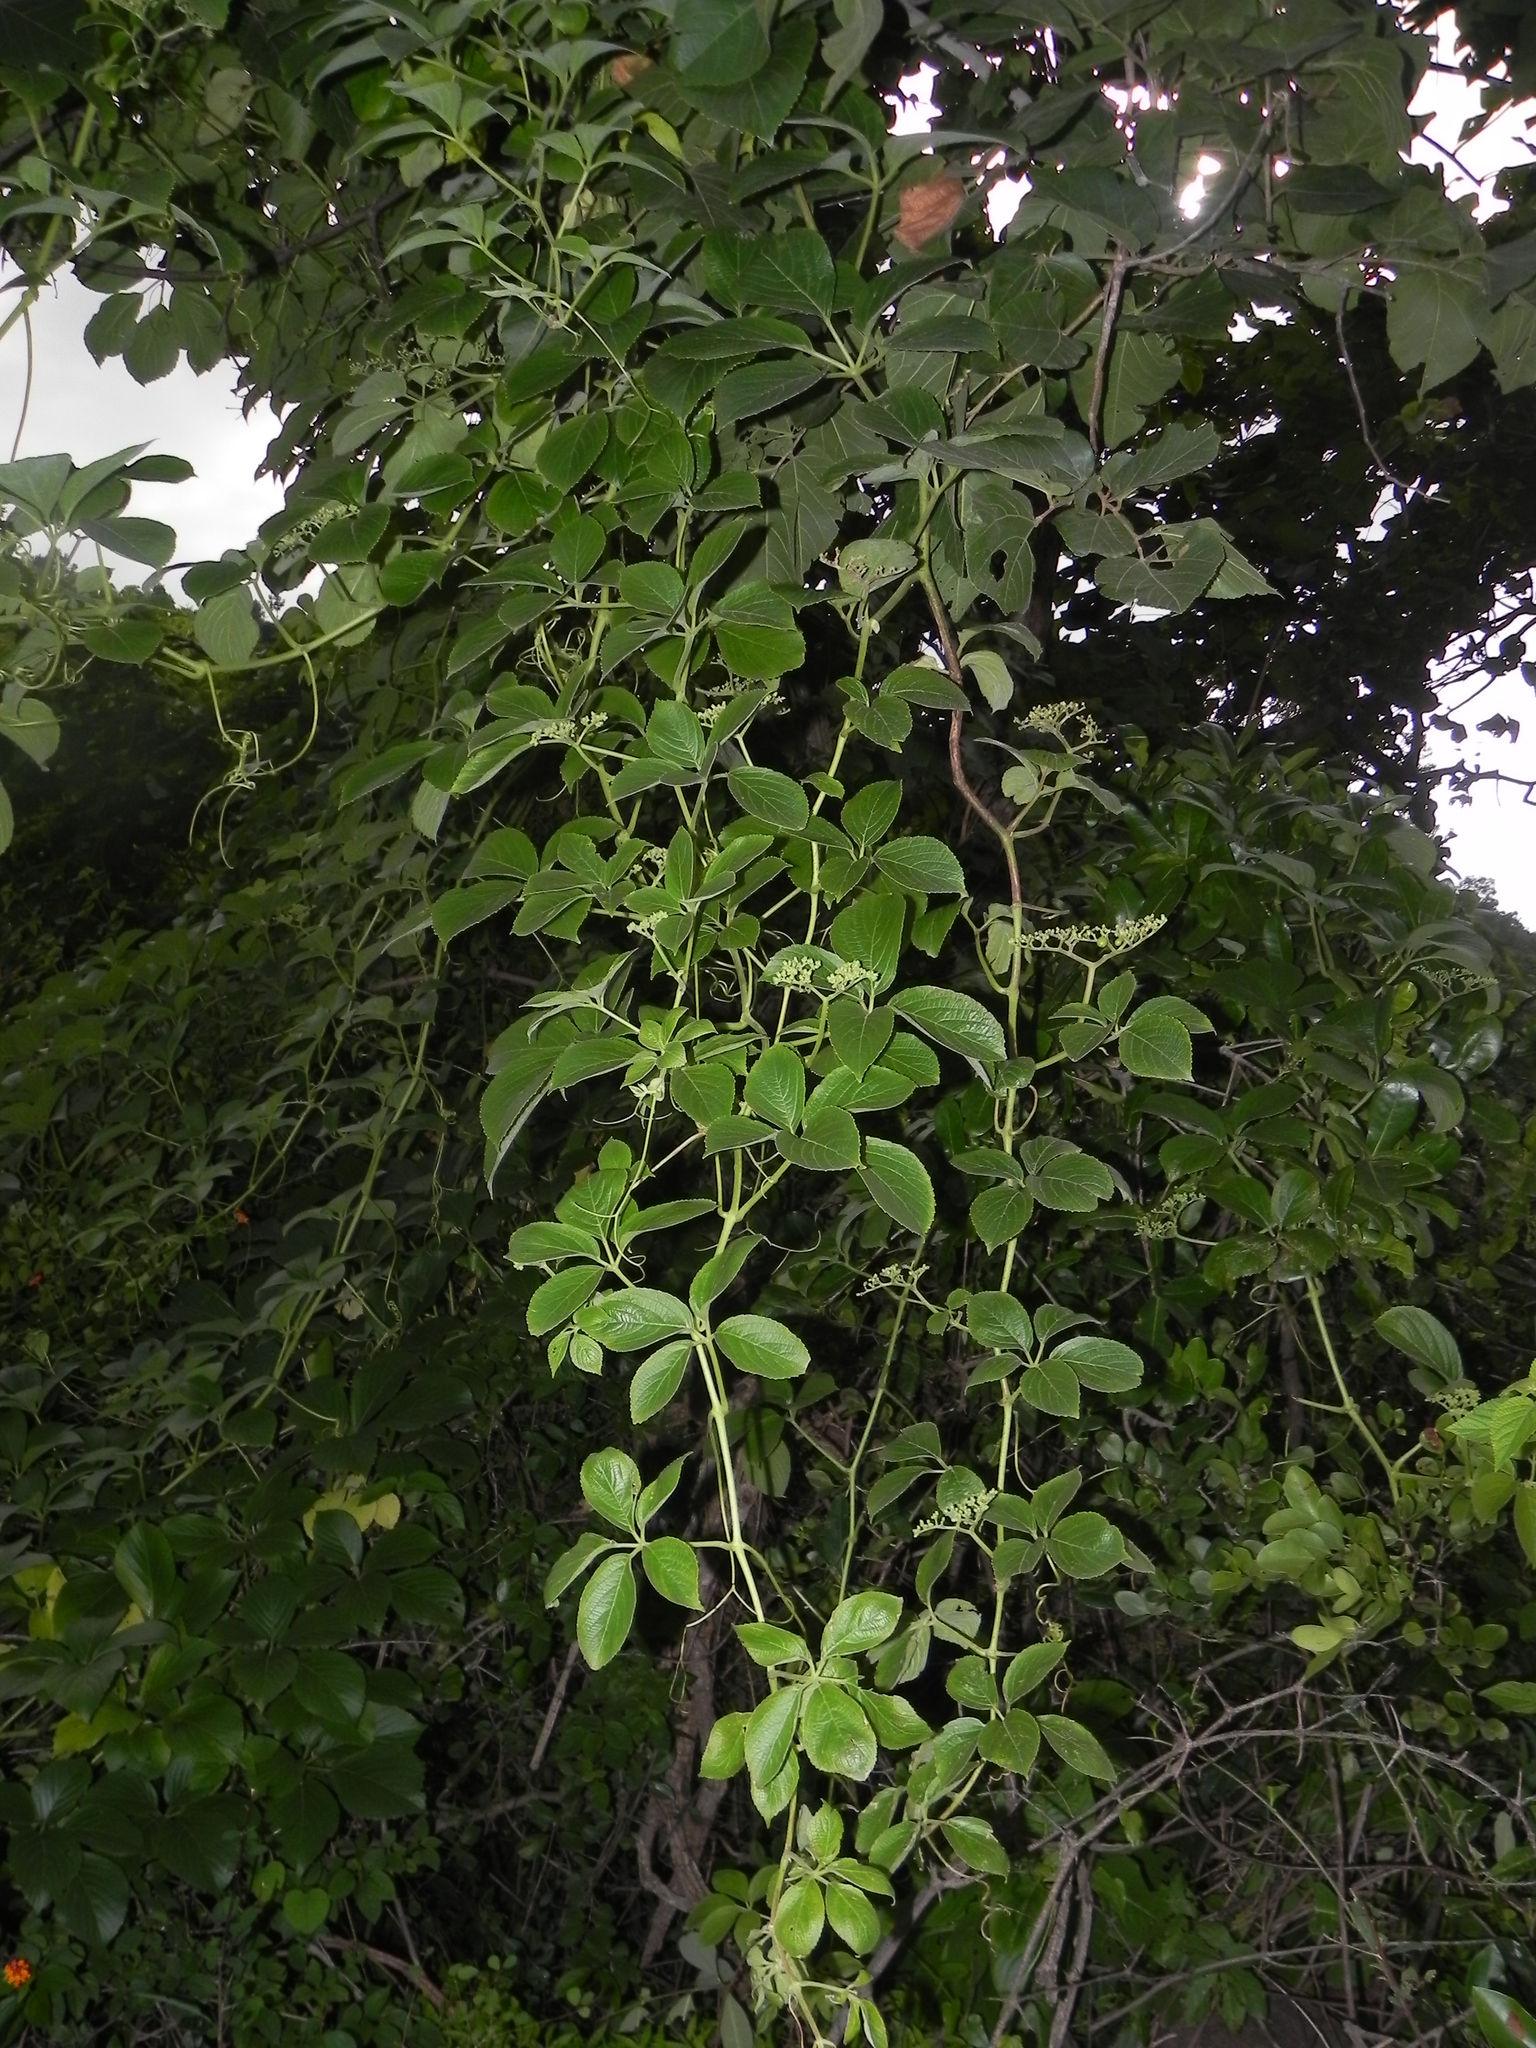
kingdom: Plantae
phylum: Tracheophyta
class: Magnoliopsida
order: Vitales
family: Vitaceae
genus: Cayratia
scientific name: Cayratia auriculata
